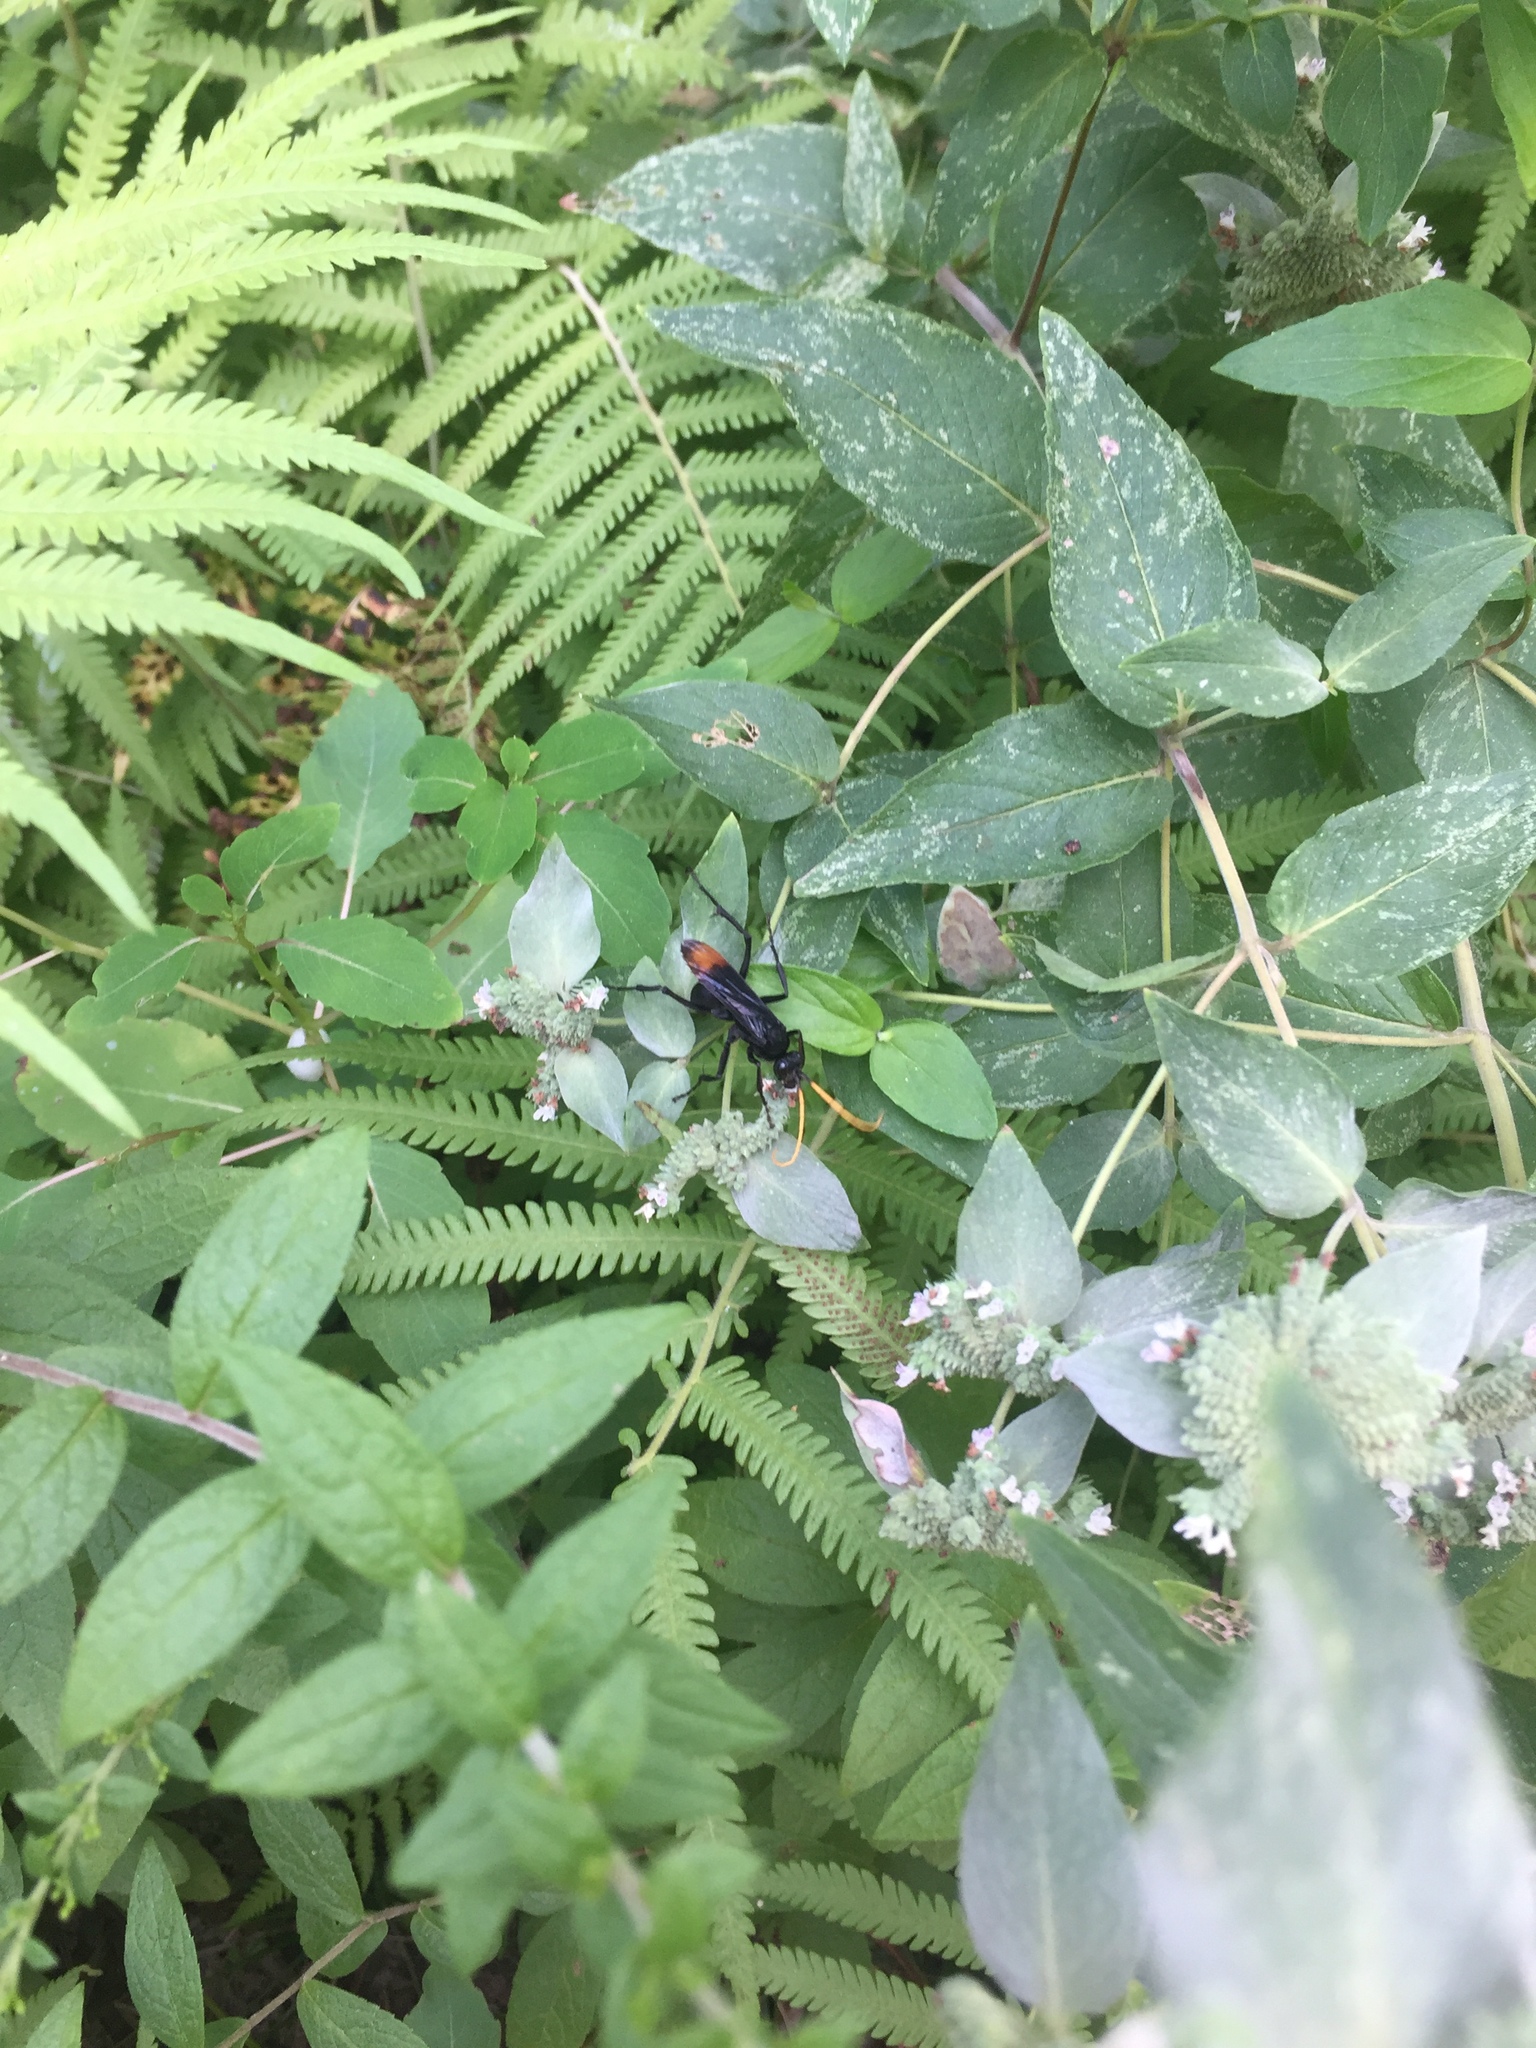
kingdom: Animalia
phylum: Arthropoda
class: Insecta
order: Hymenoptera
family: Pompilidae
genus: Entypus
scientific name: Entypus unifasciatus
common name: Eastern tawny-horned spider wasp
